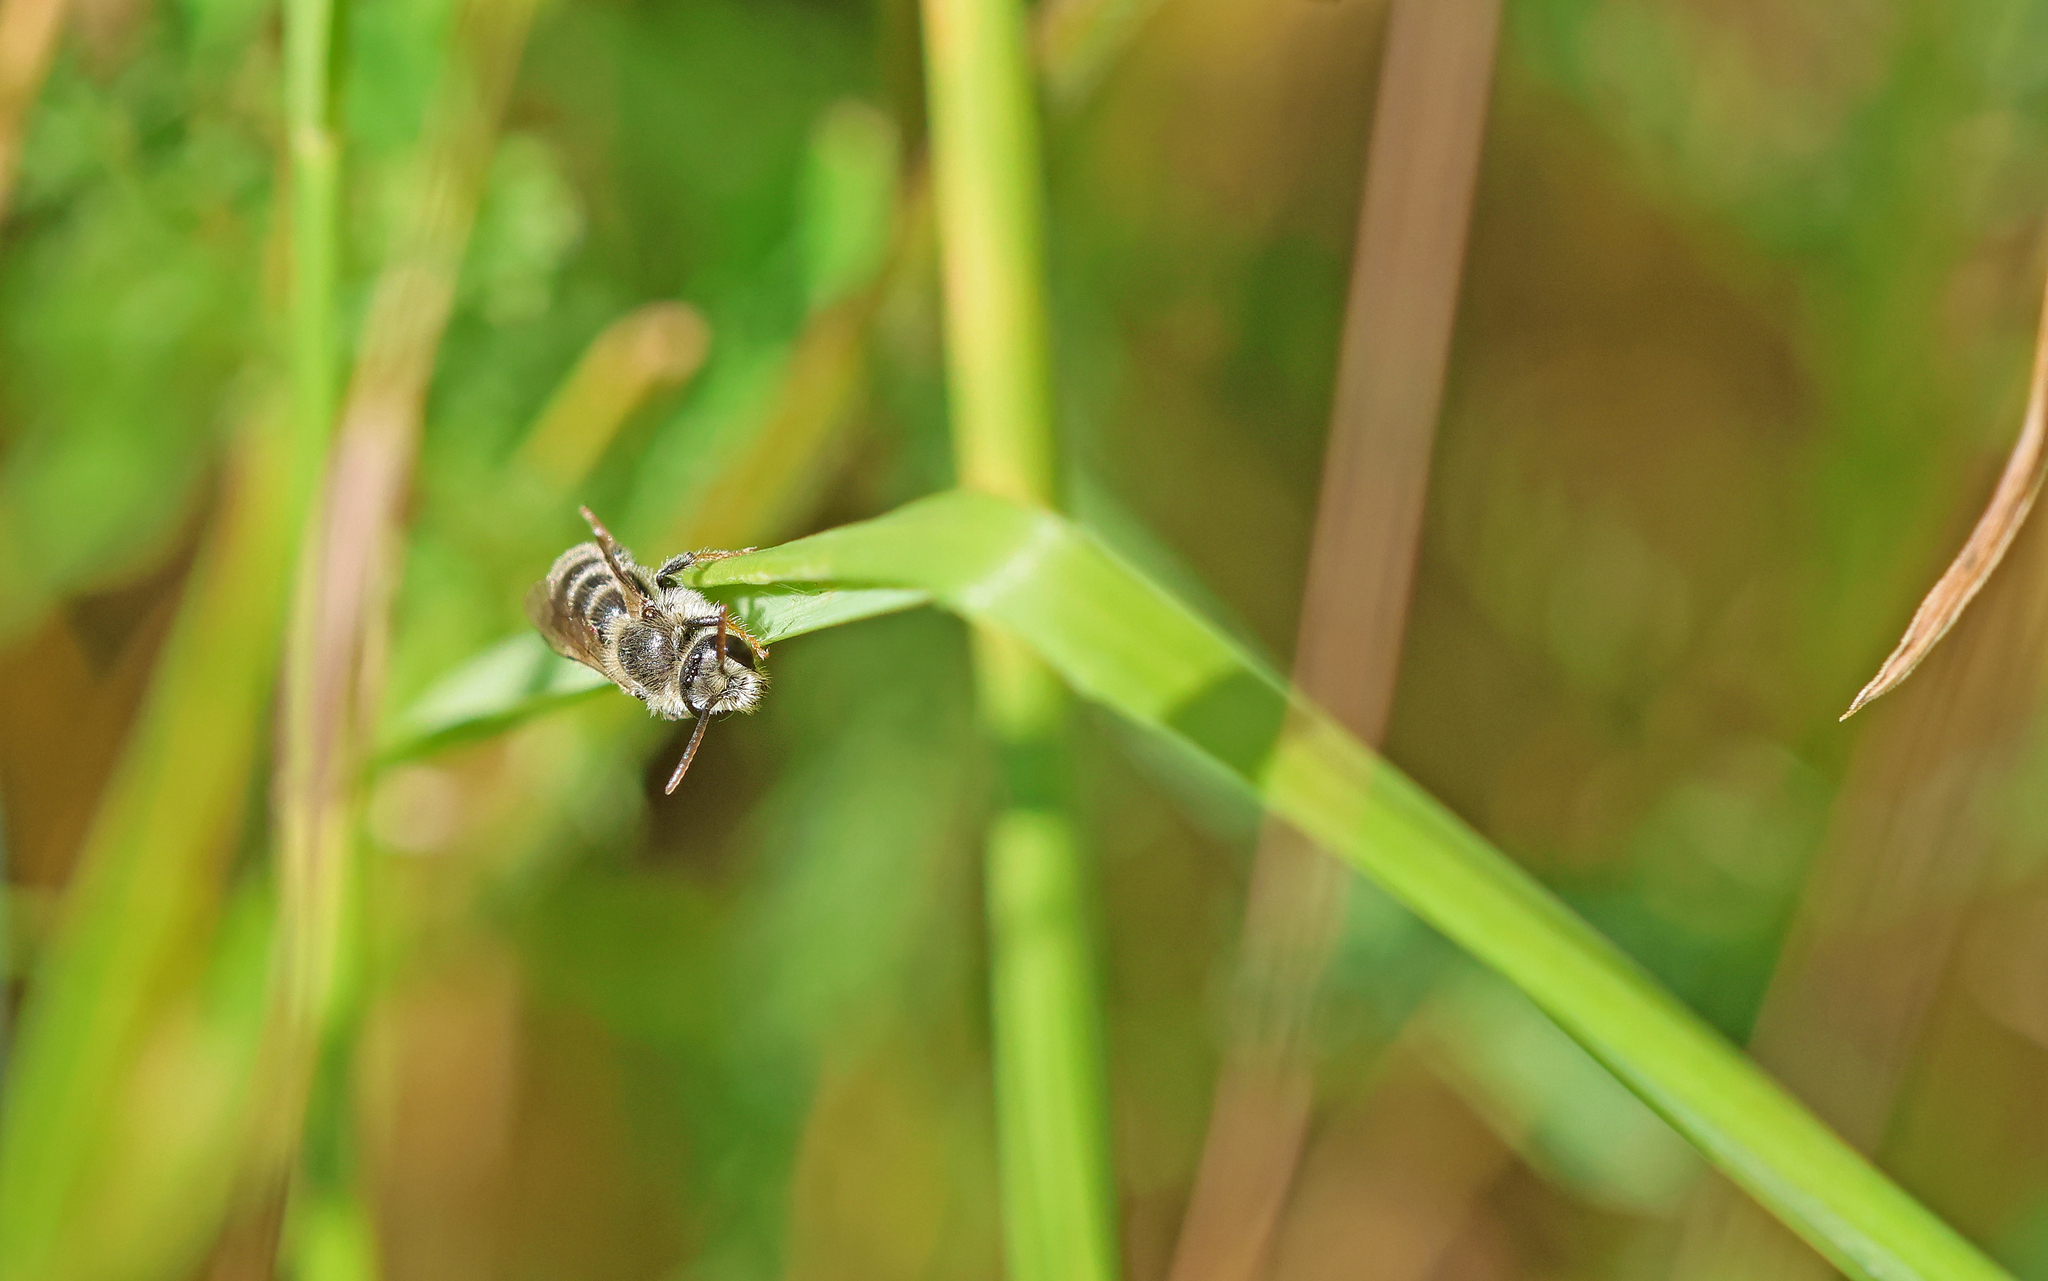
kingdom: Animalia
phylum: Arthropoda
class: Insecta
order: Hymenoptera
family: Halictidae
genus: Rophites
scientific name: Rophites canus
